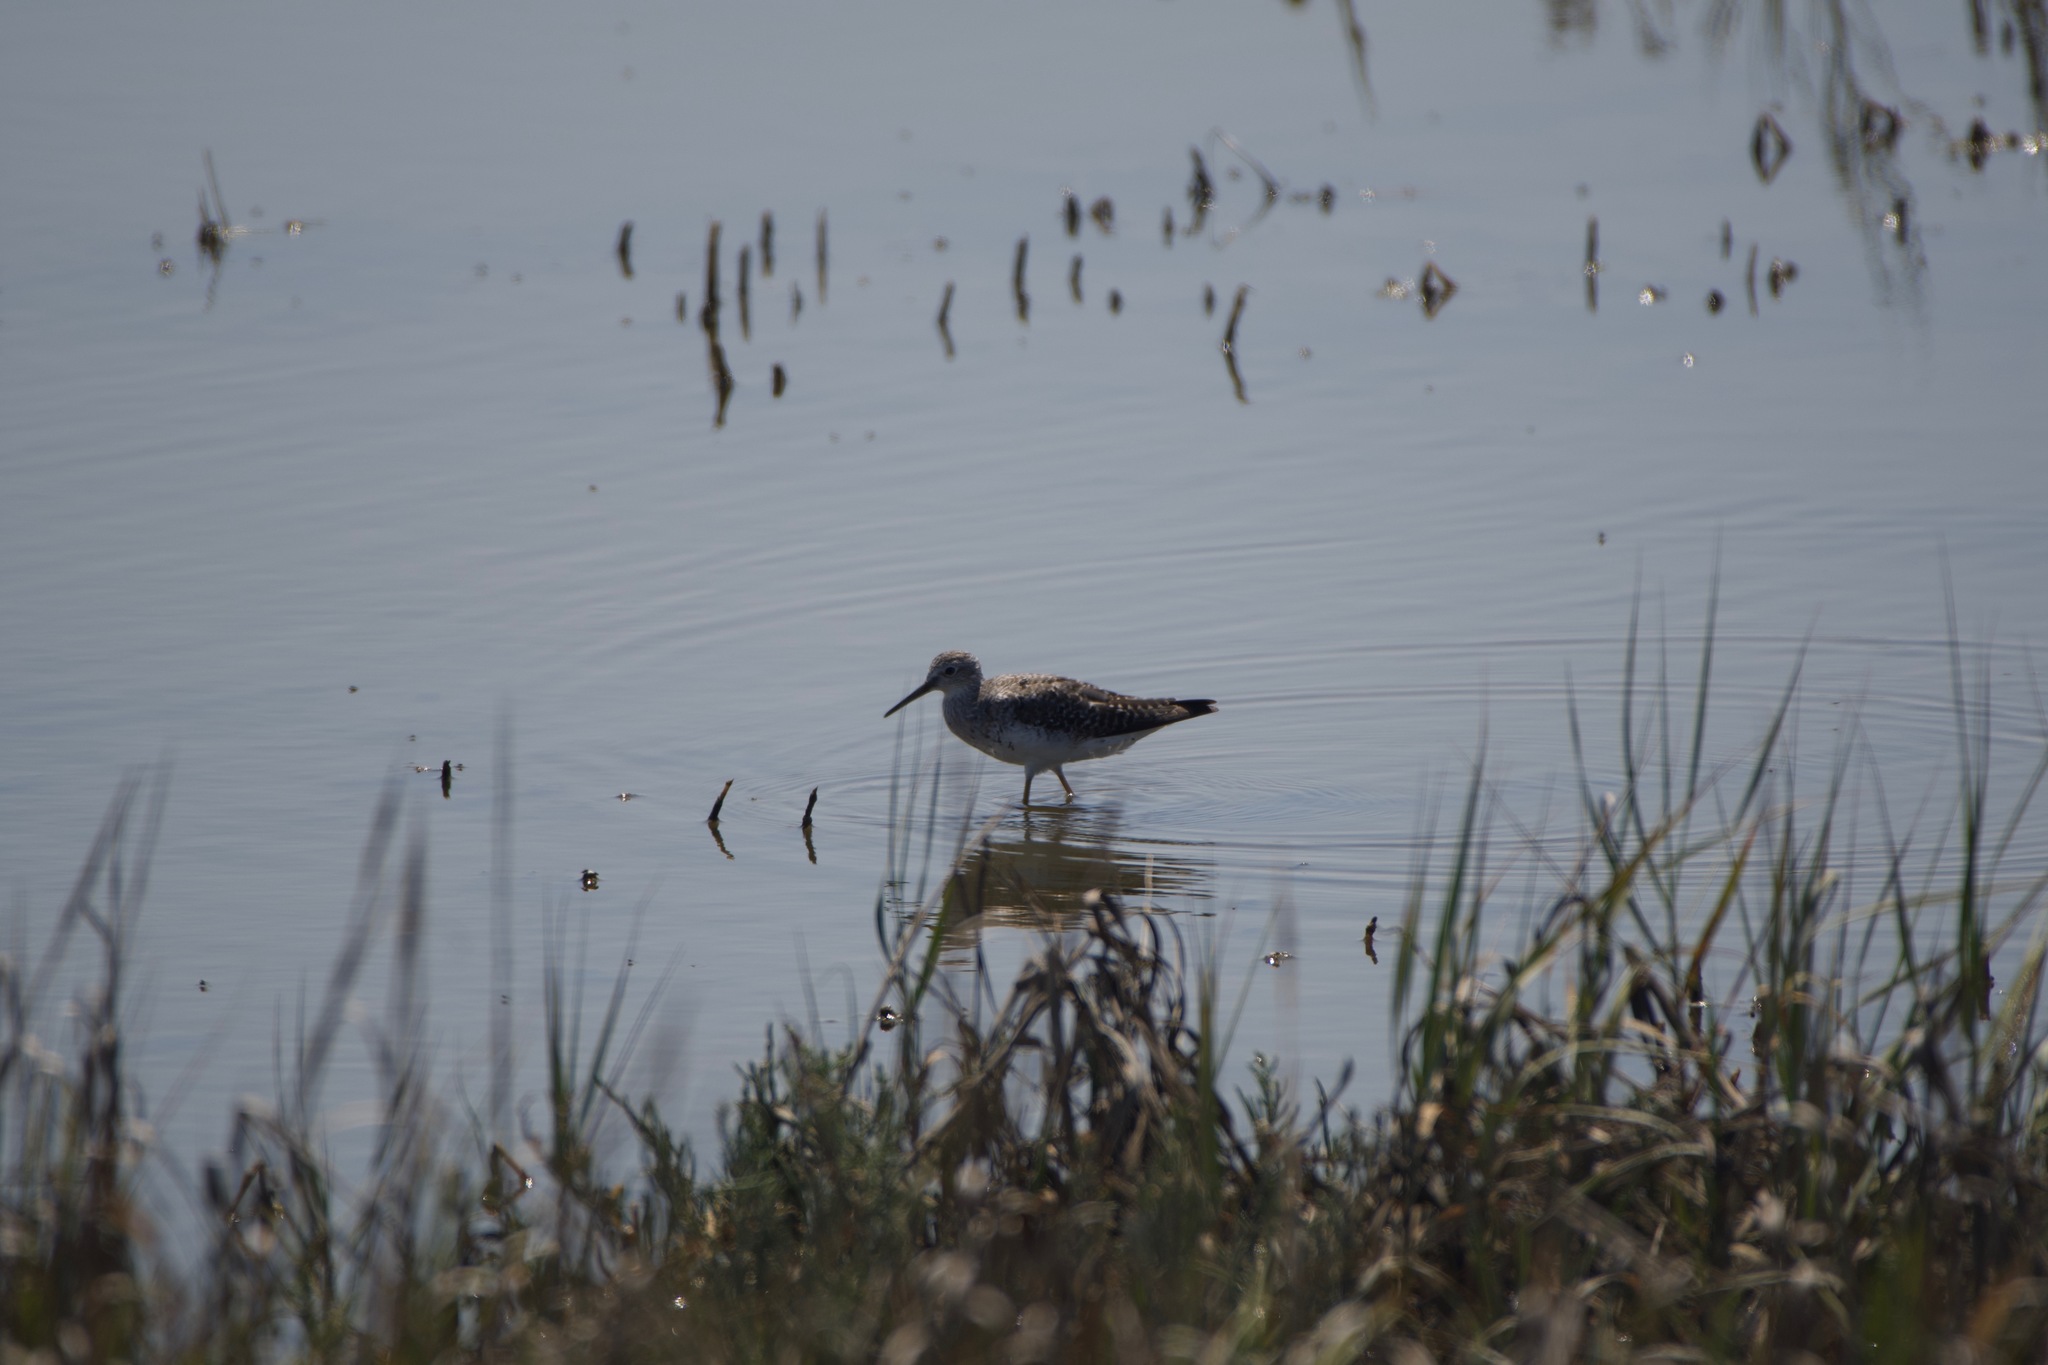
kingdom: Animalia
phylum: Chordata
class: Aves
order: Charadriiformes
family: Scolopacidae
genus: Tringa
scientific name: Tringa flavipes
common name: Lesser yellowlegs
